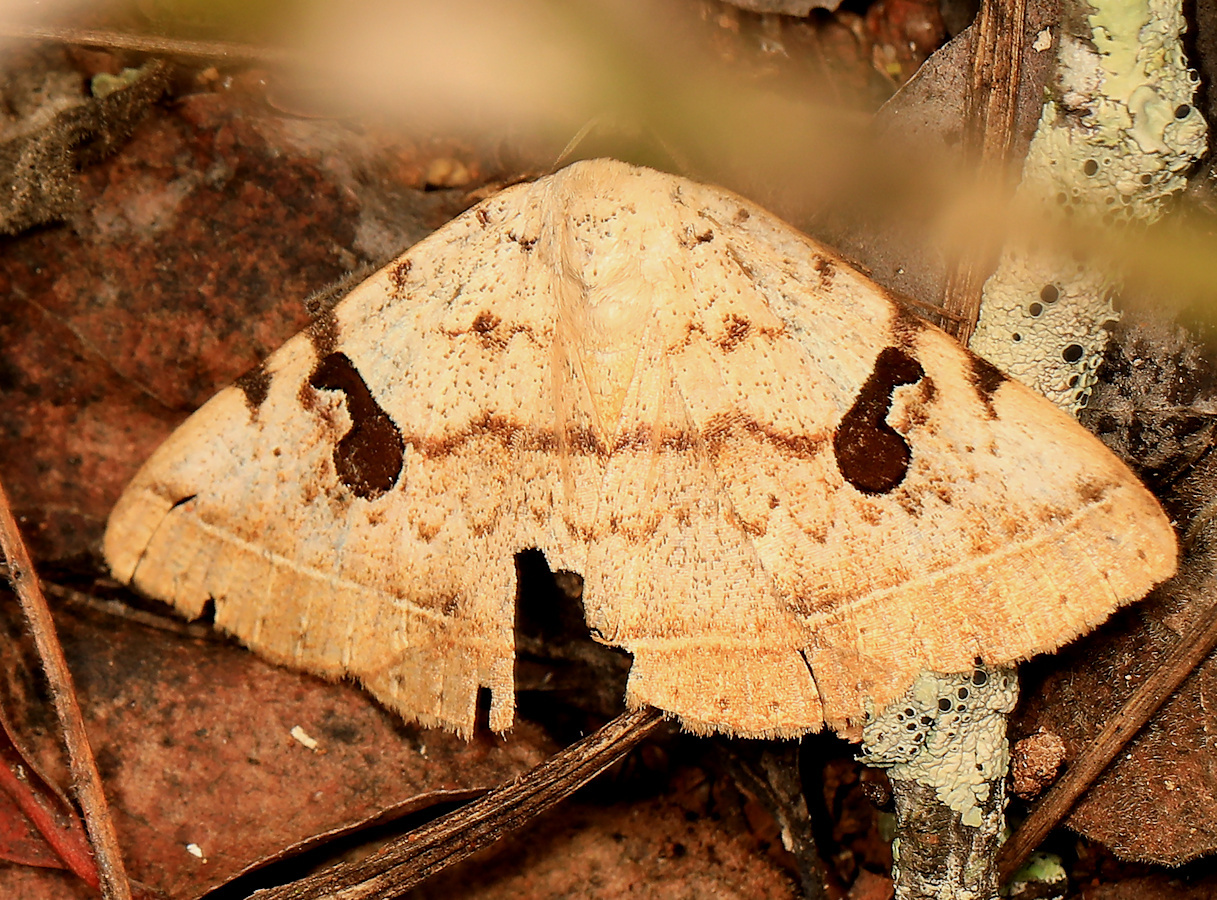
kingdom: Animalia
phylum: Arthropoda
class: Insecta
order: Lepidoptera
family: Erebidae
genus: Hypopyra
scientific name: Hypopyra africana
